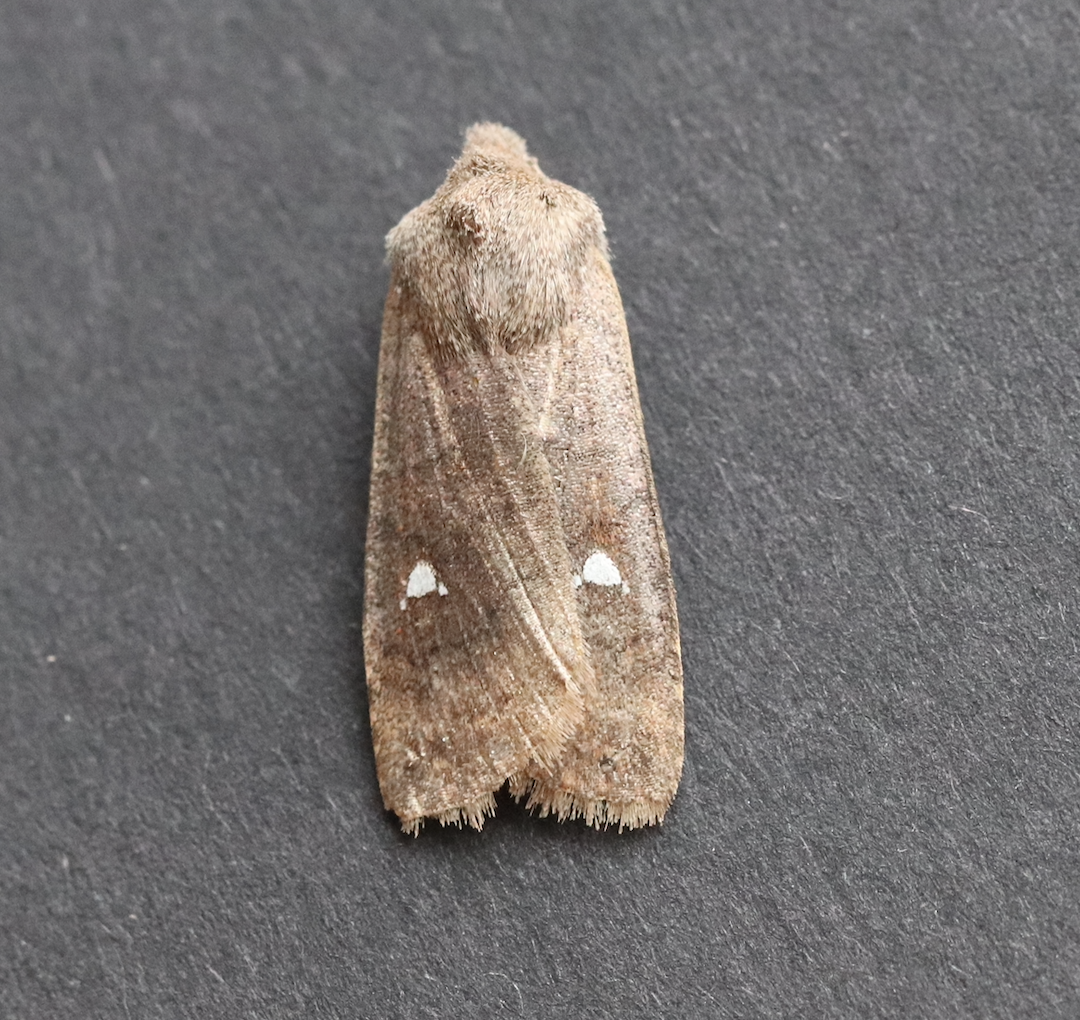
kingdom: Animalia
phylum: Arthropoda
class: Insecta
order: Lepidoptera
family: Noctuidae
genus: Eupsilia
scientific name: Eupsilia transversa
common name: Satellite
